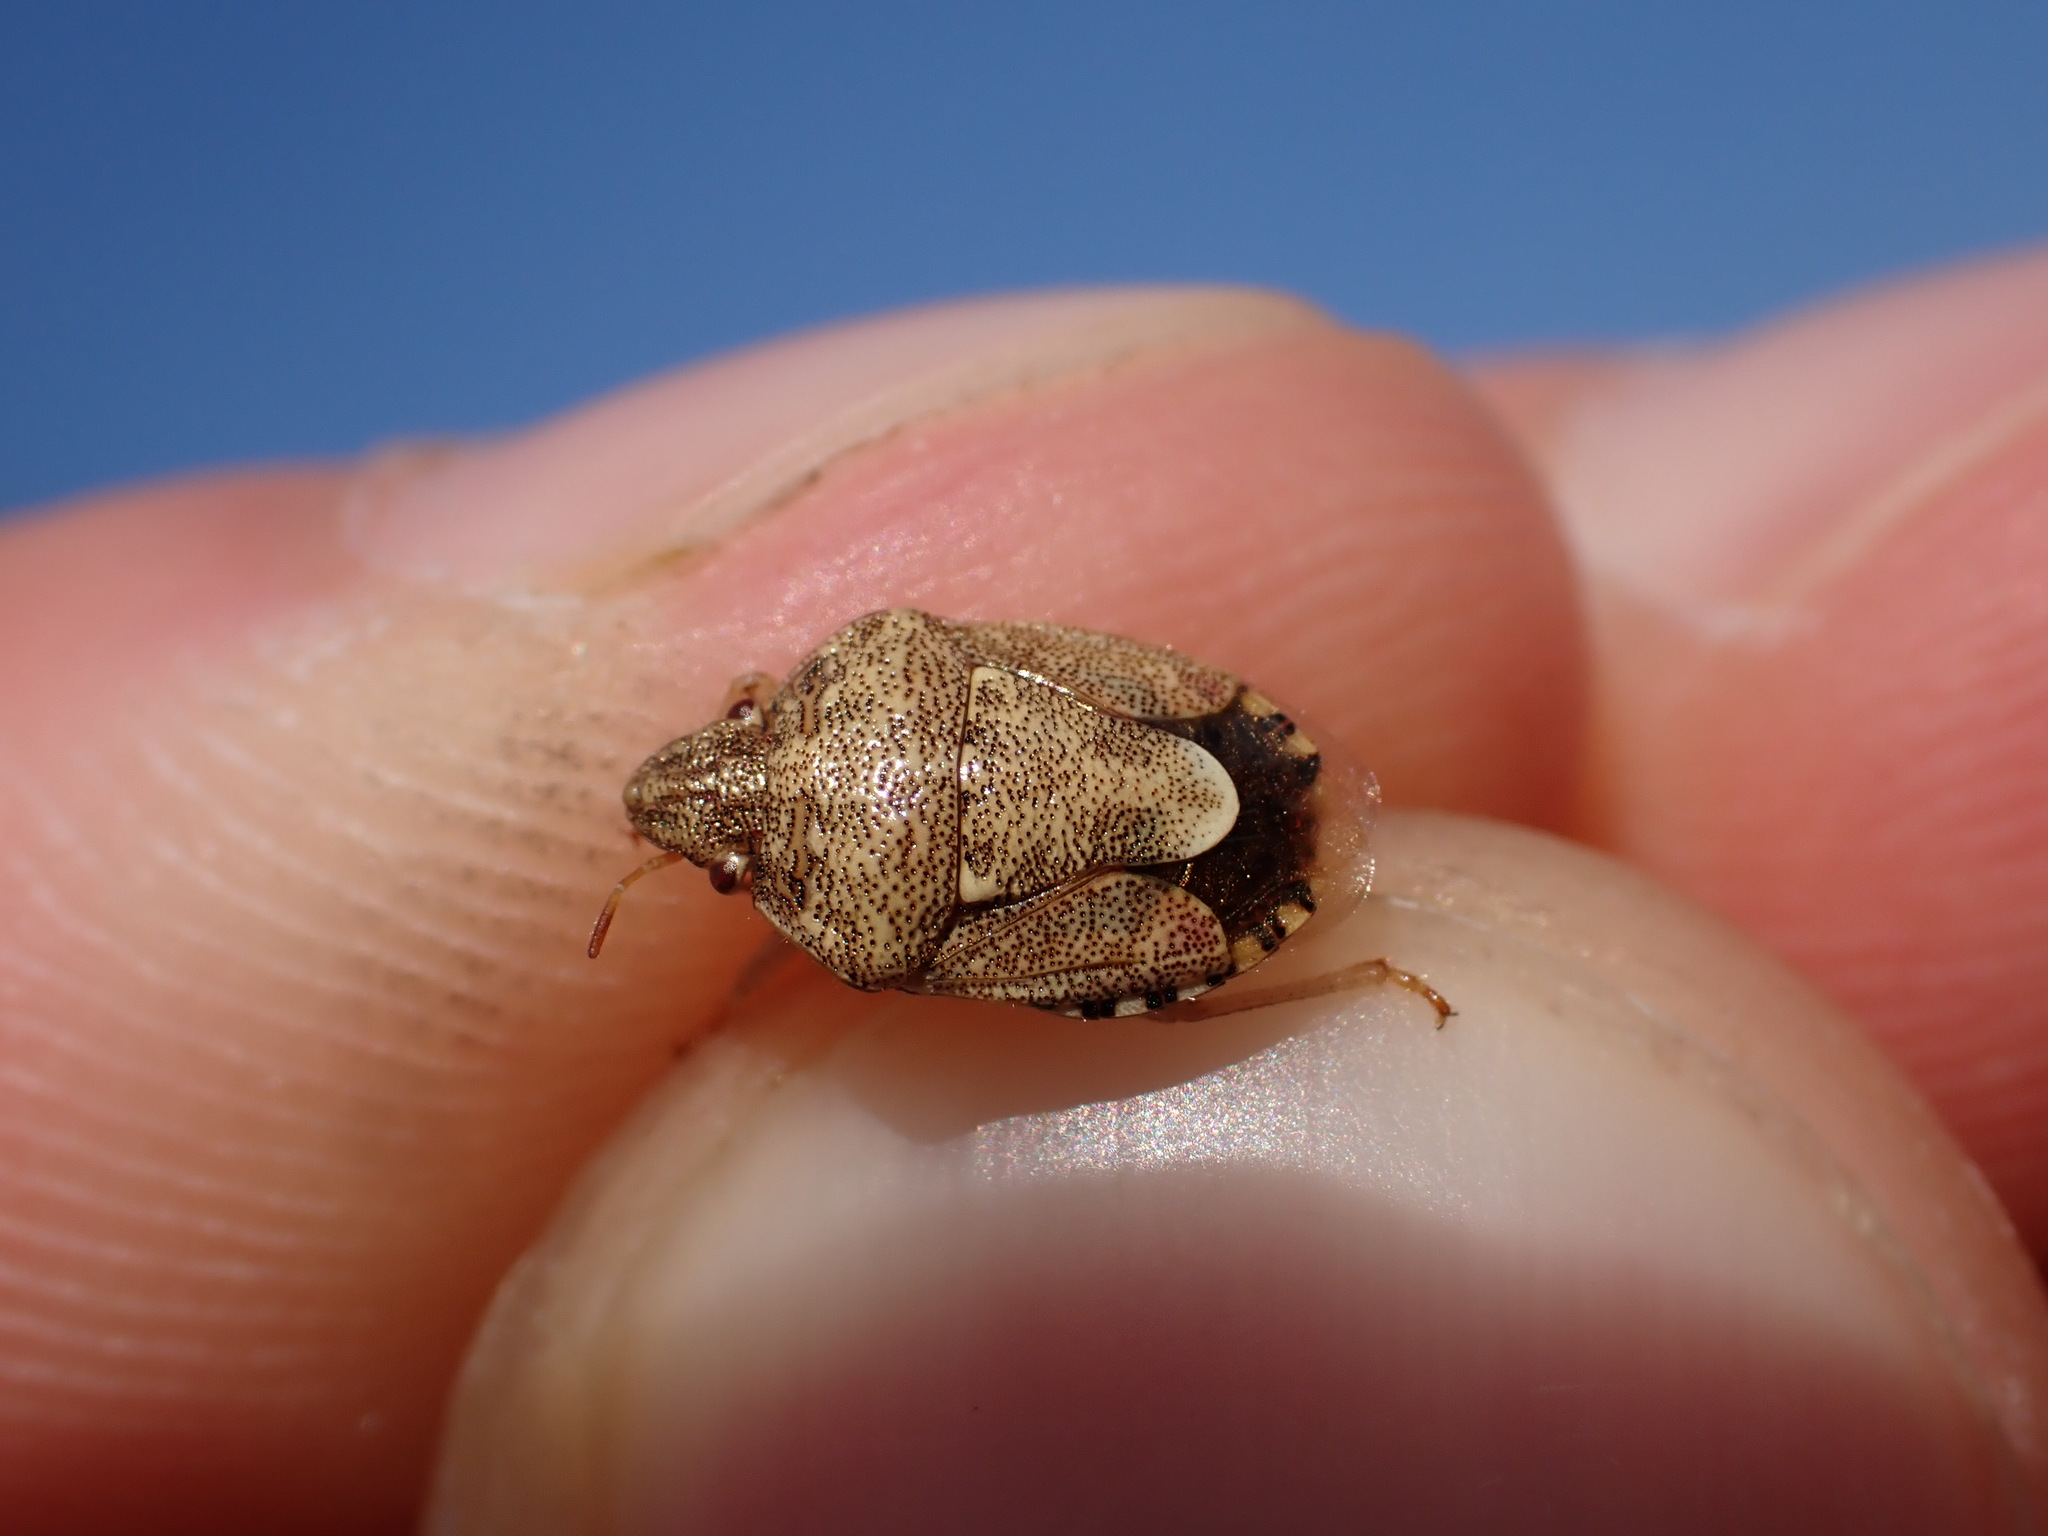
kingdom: Animalia
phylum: Arthropoda
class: Insecta
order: Hemiptera
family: Pentatomidae
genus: Staria
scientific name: Staria lunata
